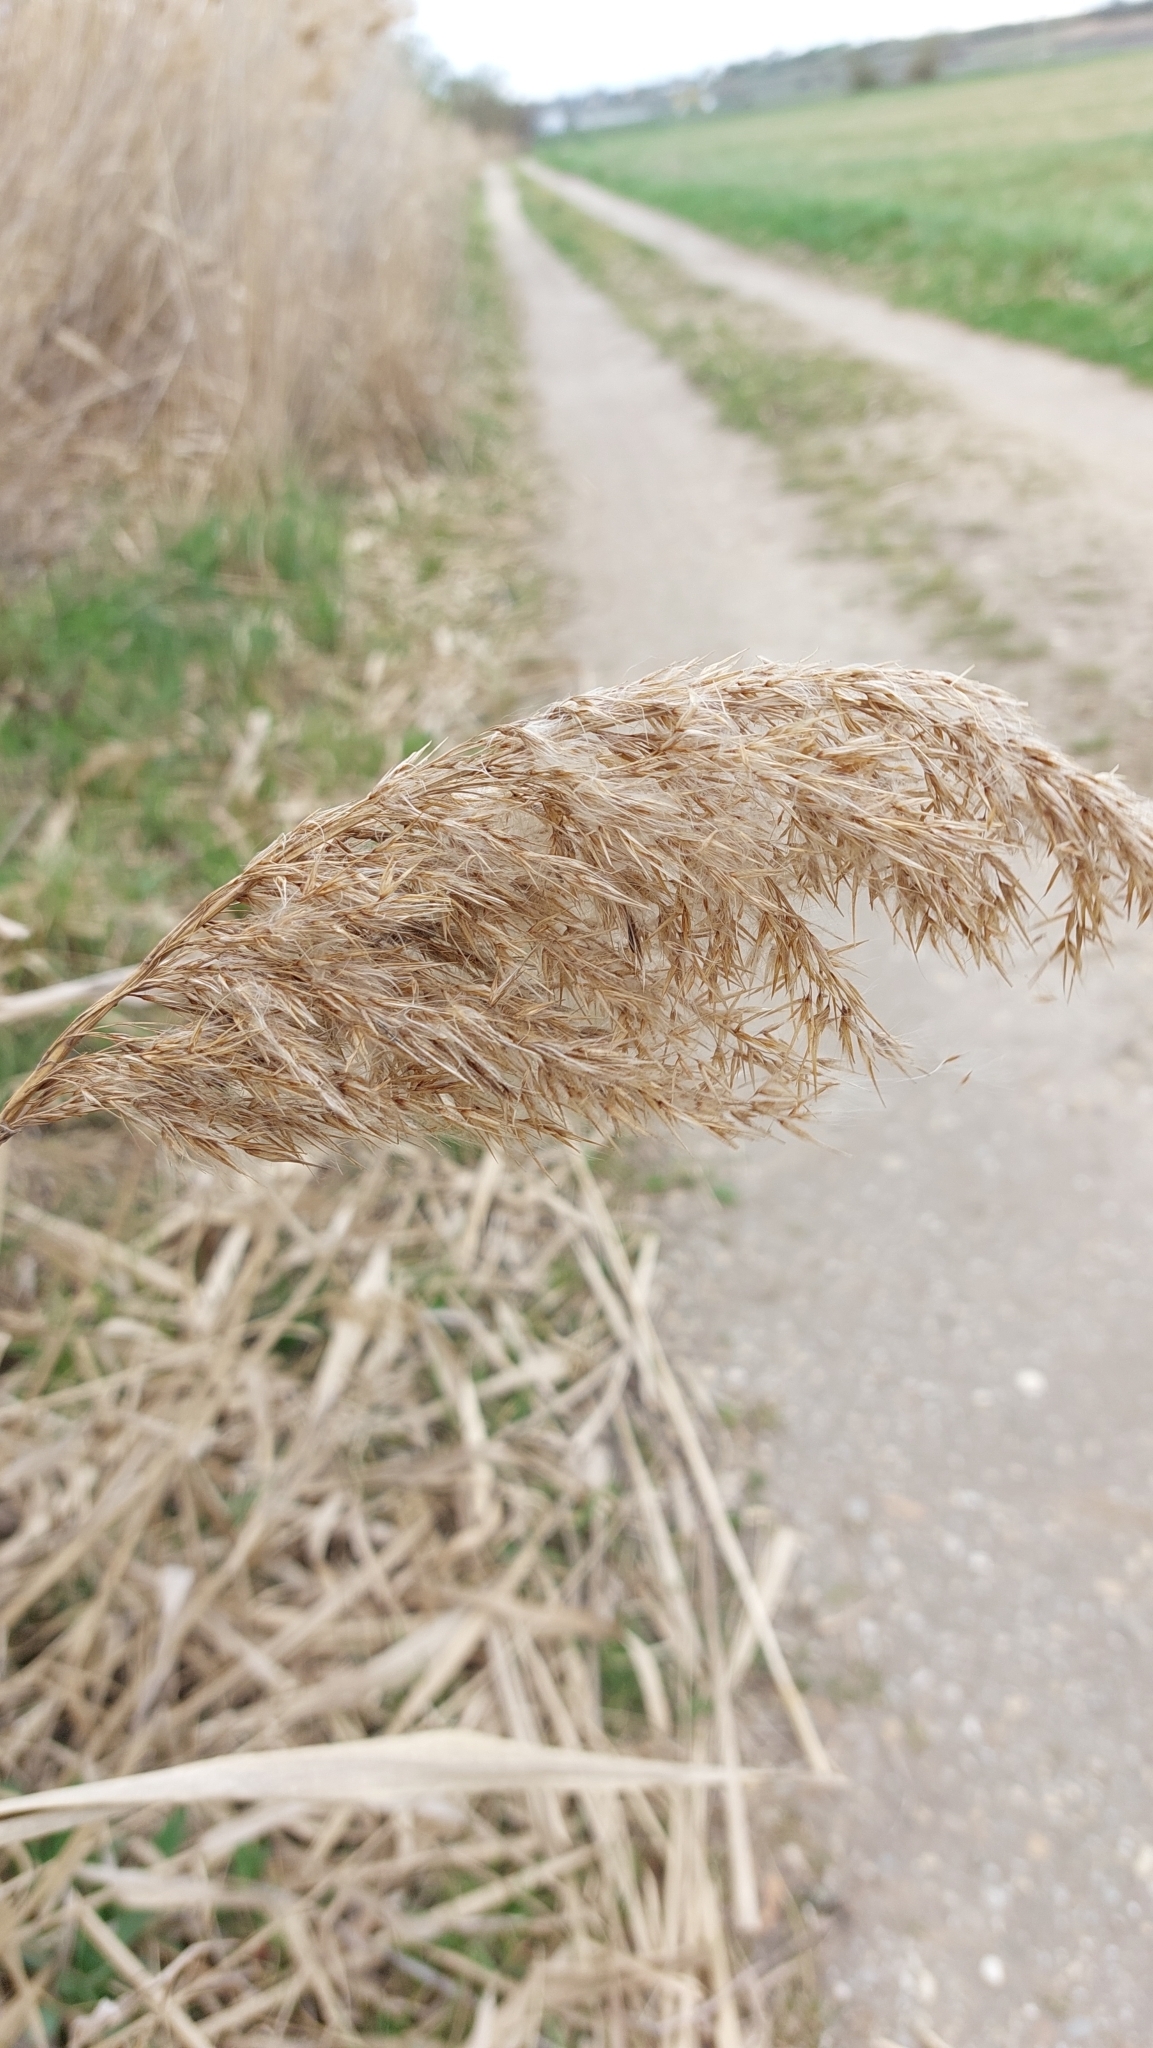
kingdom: Plantae
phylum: Tracheophyta
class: Liliopsida
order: Poales
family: Poaceae
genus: Phragmites
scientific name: Phragmites australis
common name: Common reed
